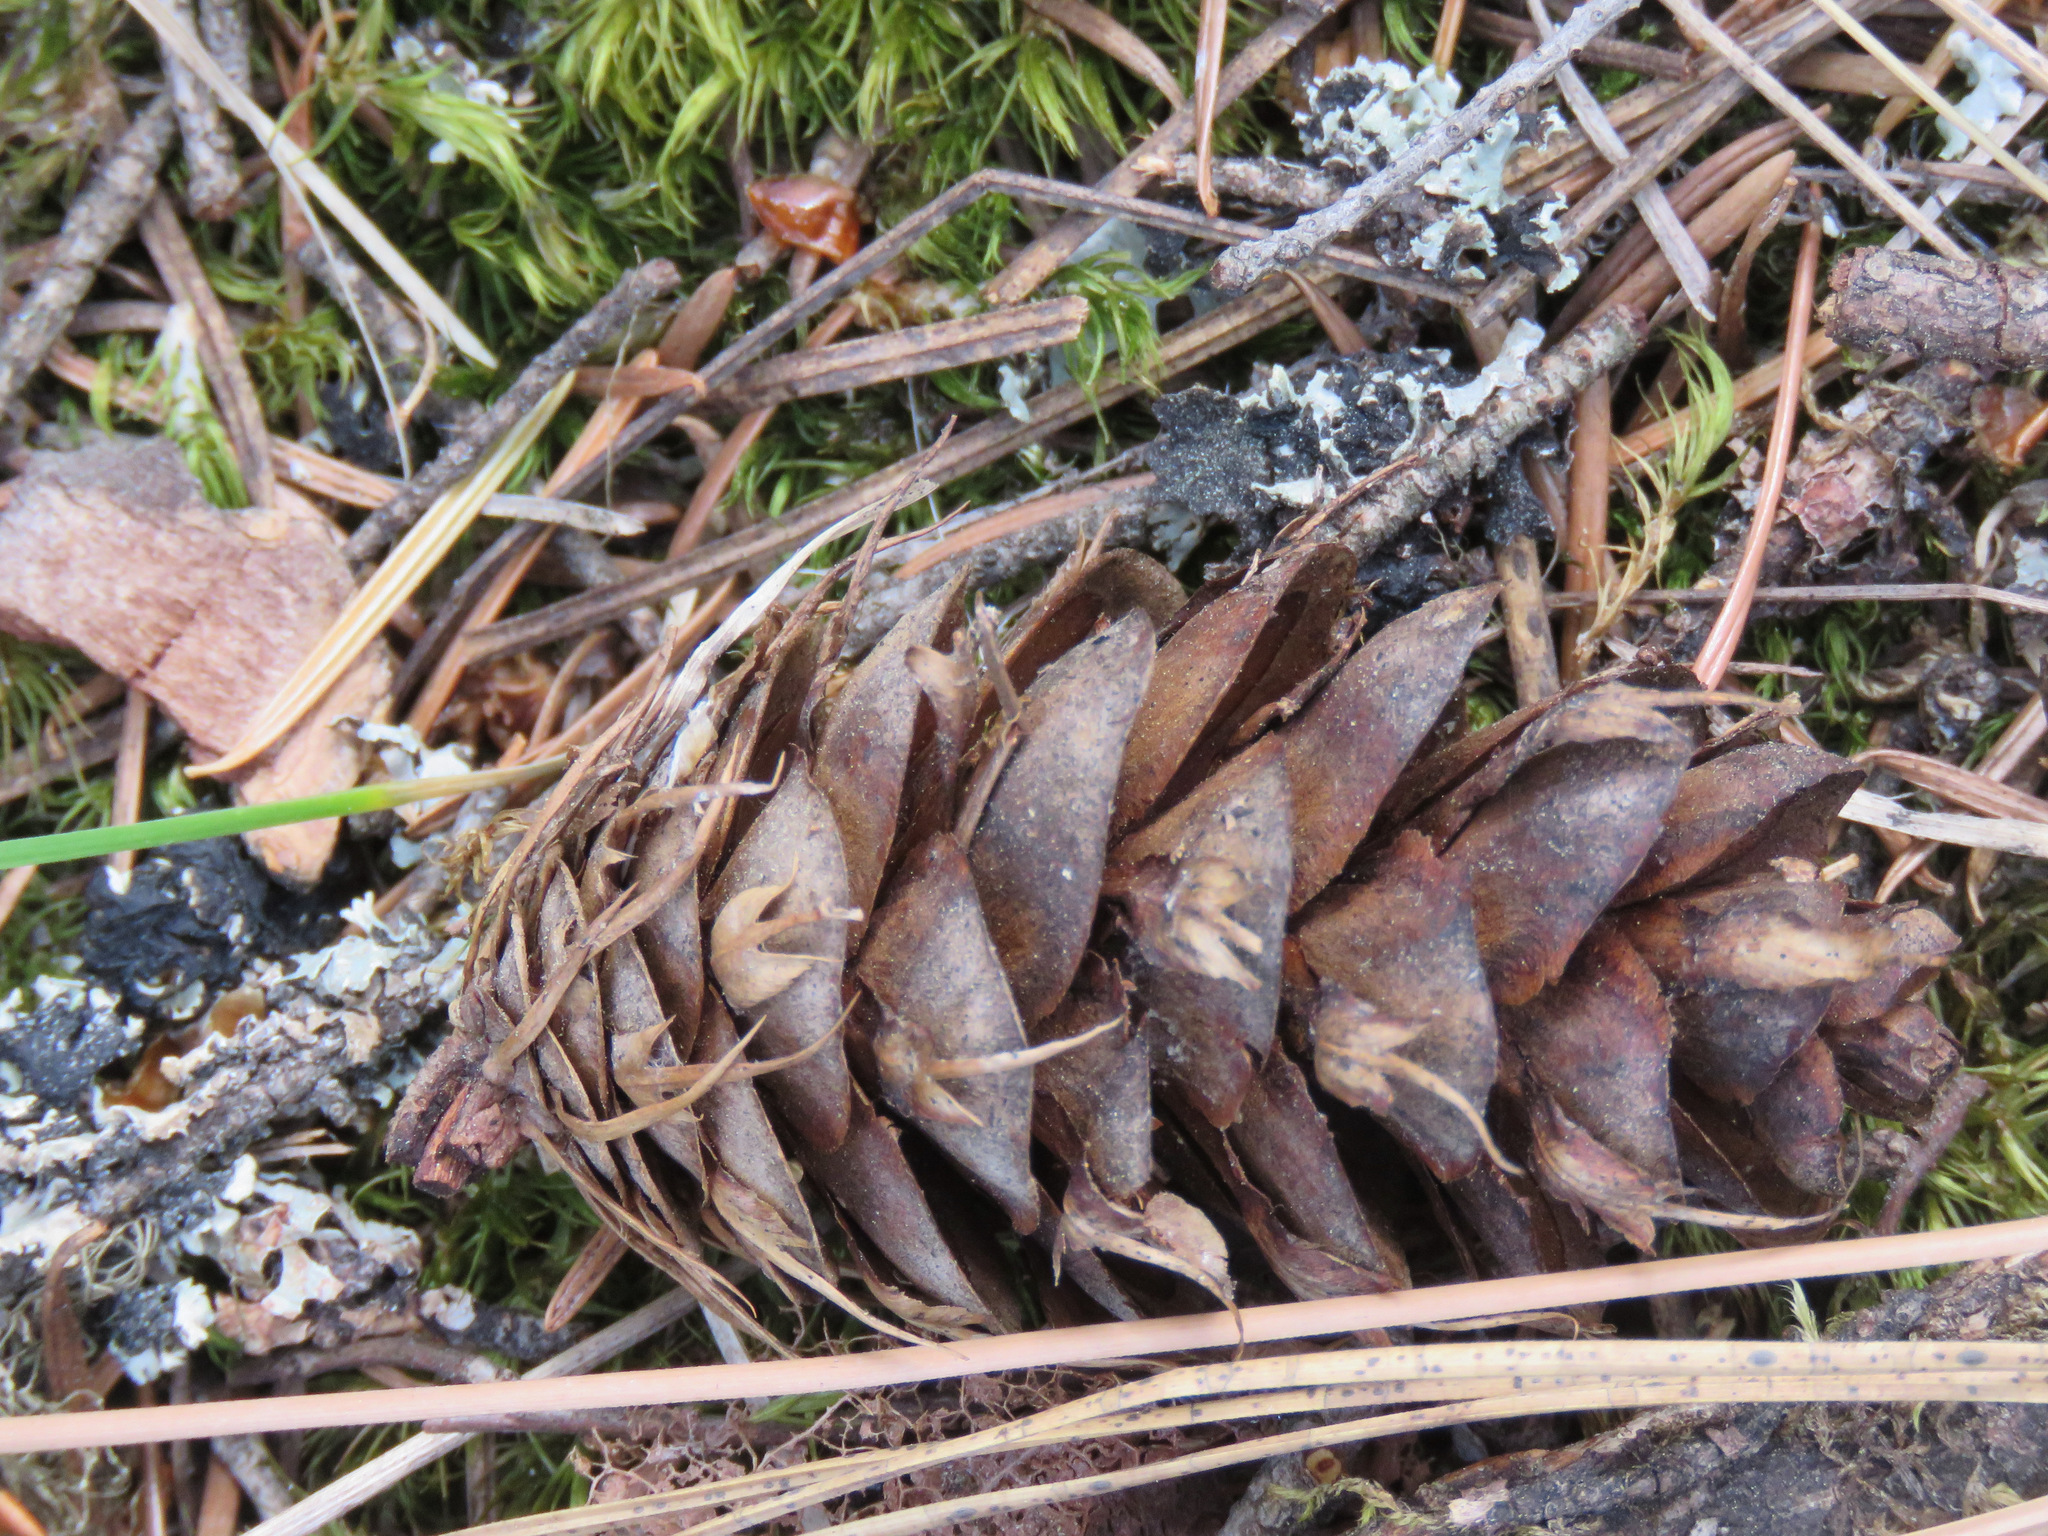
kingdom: Plantae
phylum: Tracheophyta
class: Pinopsida
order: Pinales
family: Pinaceae
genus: Pseudotsuga
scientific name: Pseudotsuga menziesii
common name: Douglas fir
